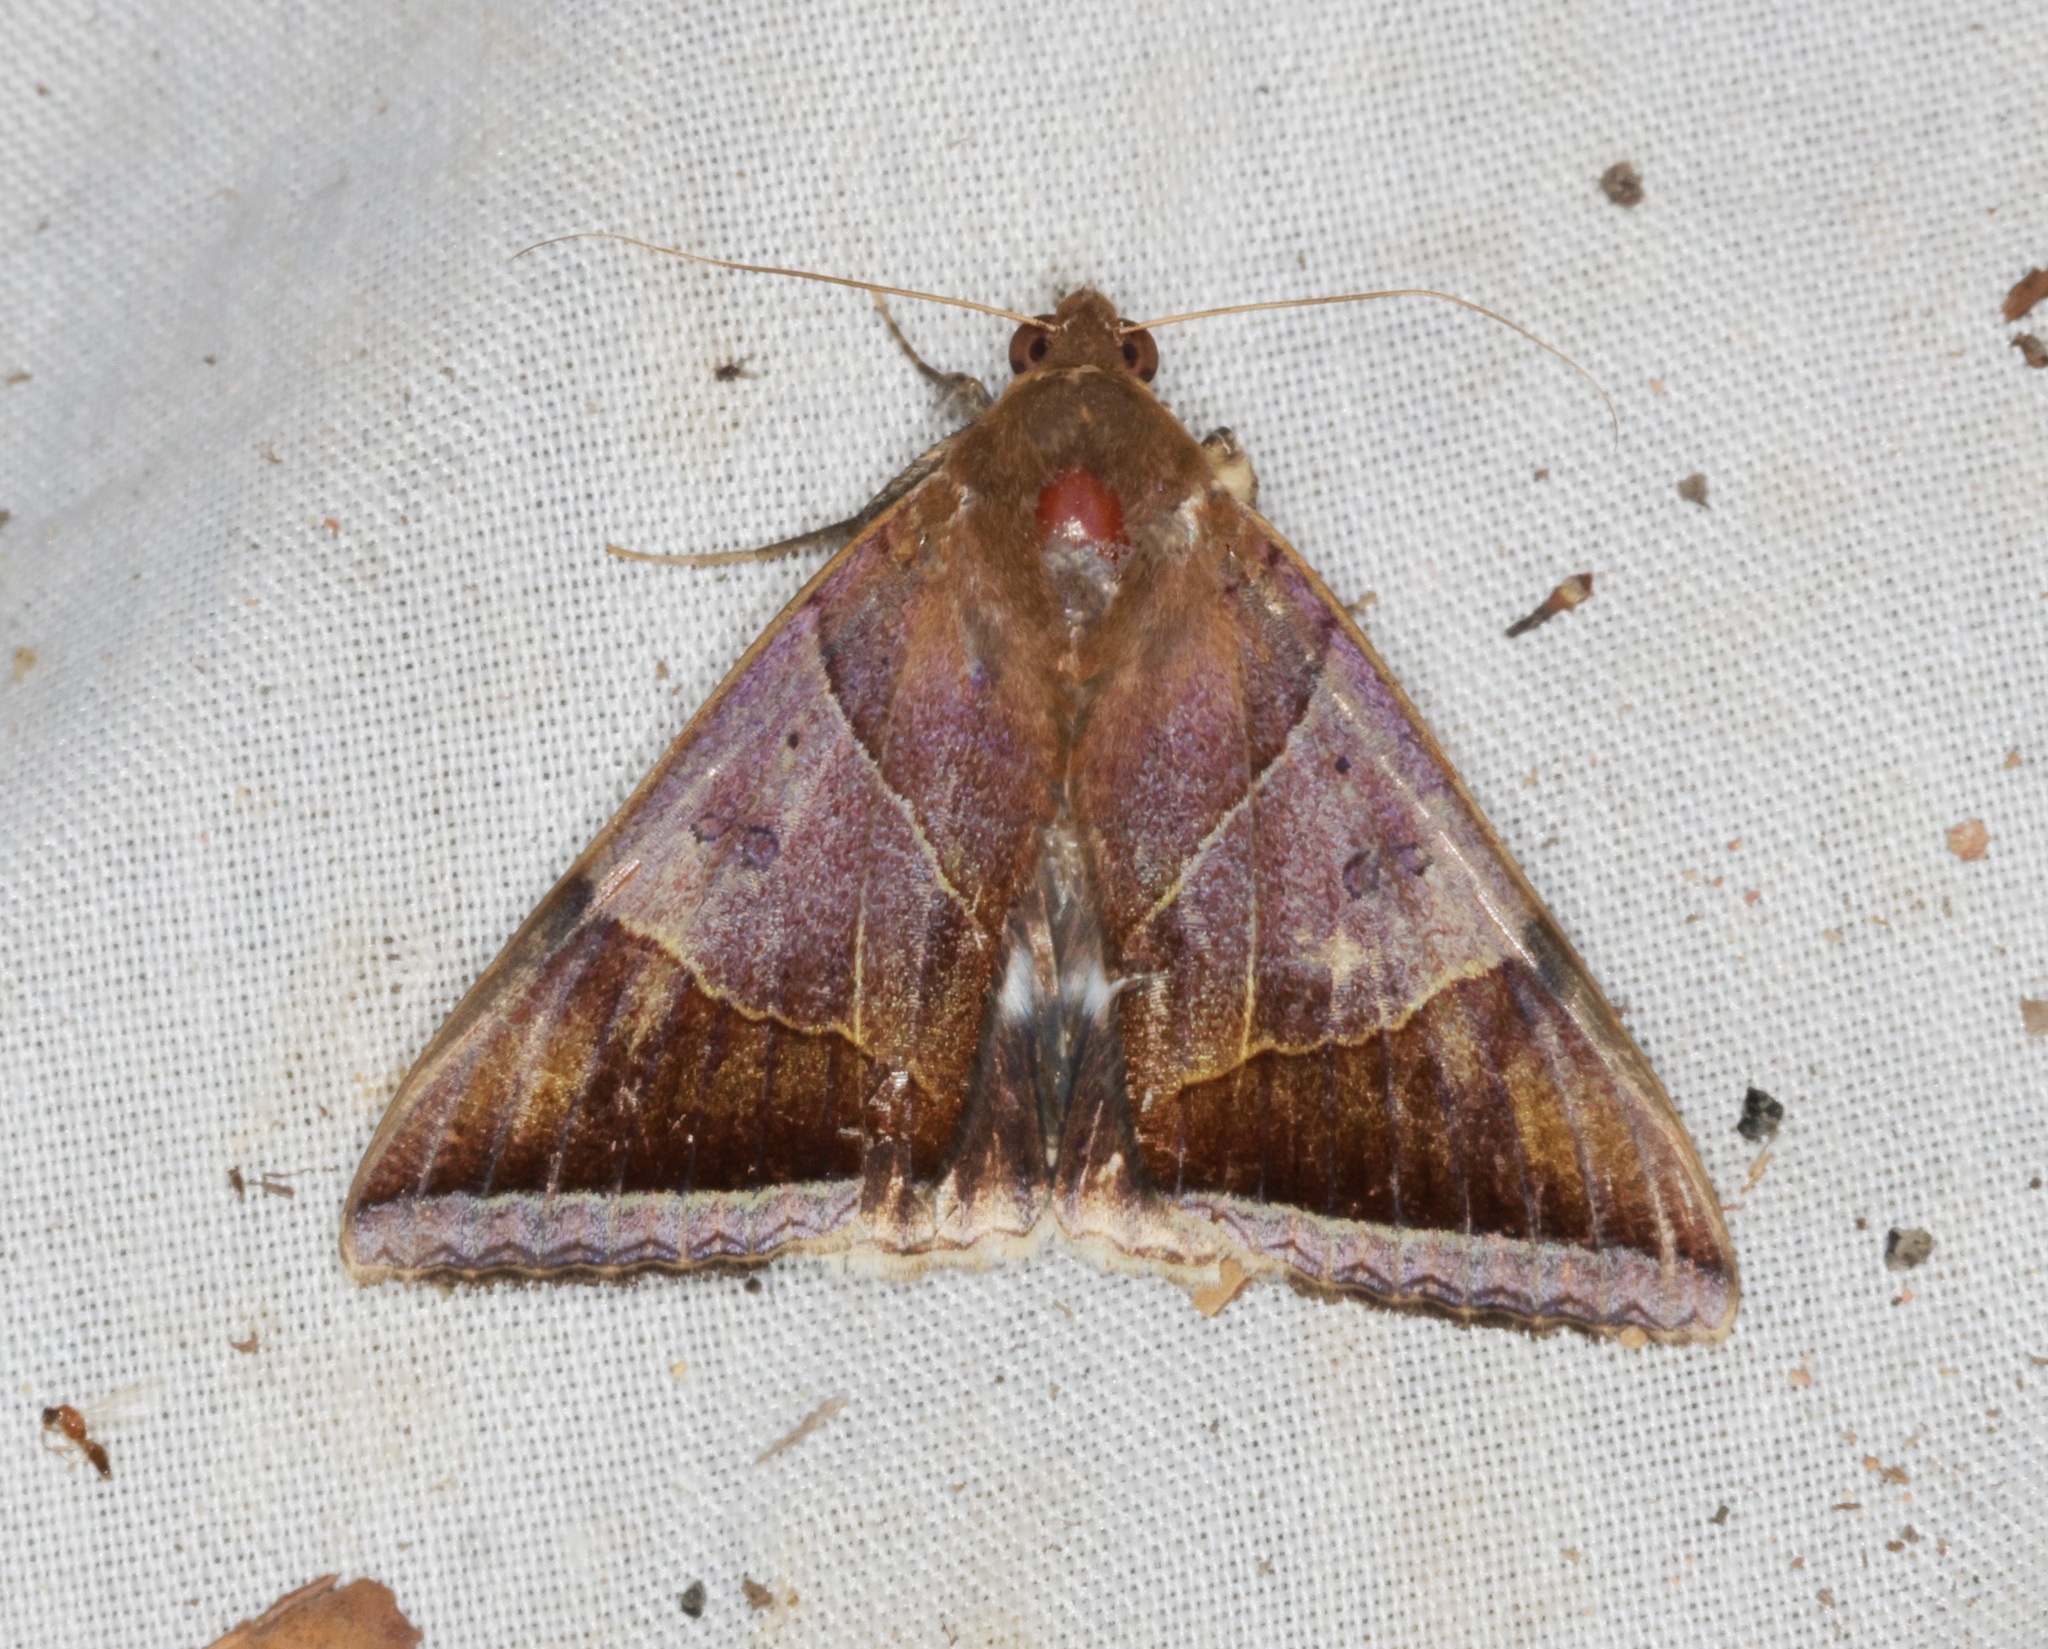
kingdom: Animalia
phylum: Arthropoda
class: Insecta
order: Lepidoptera
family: Erebidae
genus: Artena
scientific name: Artena dotata
